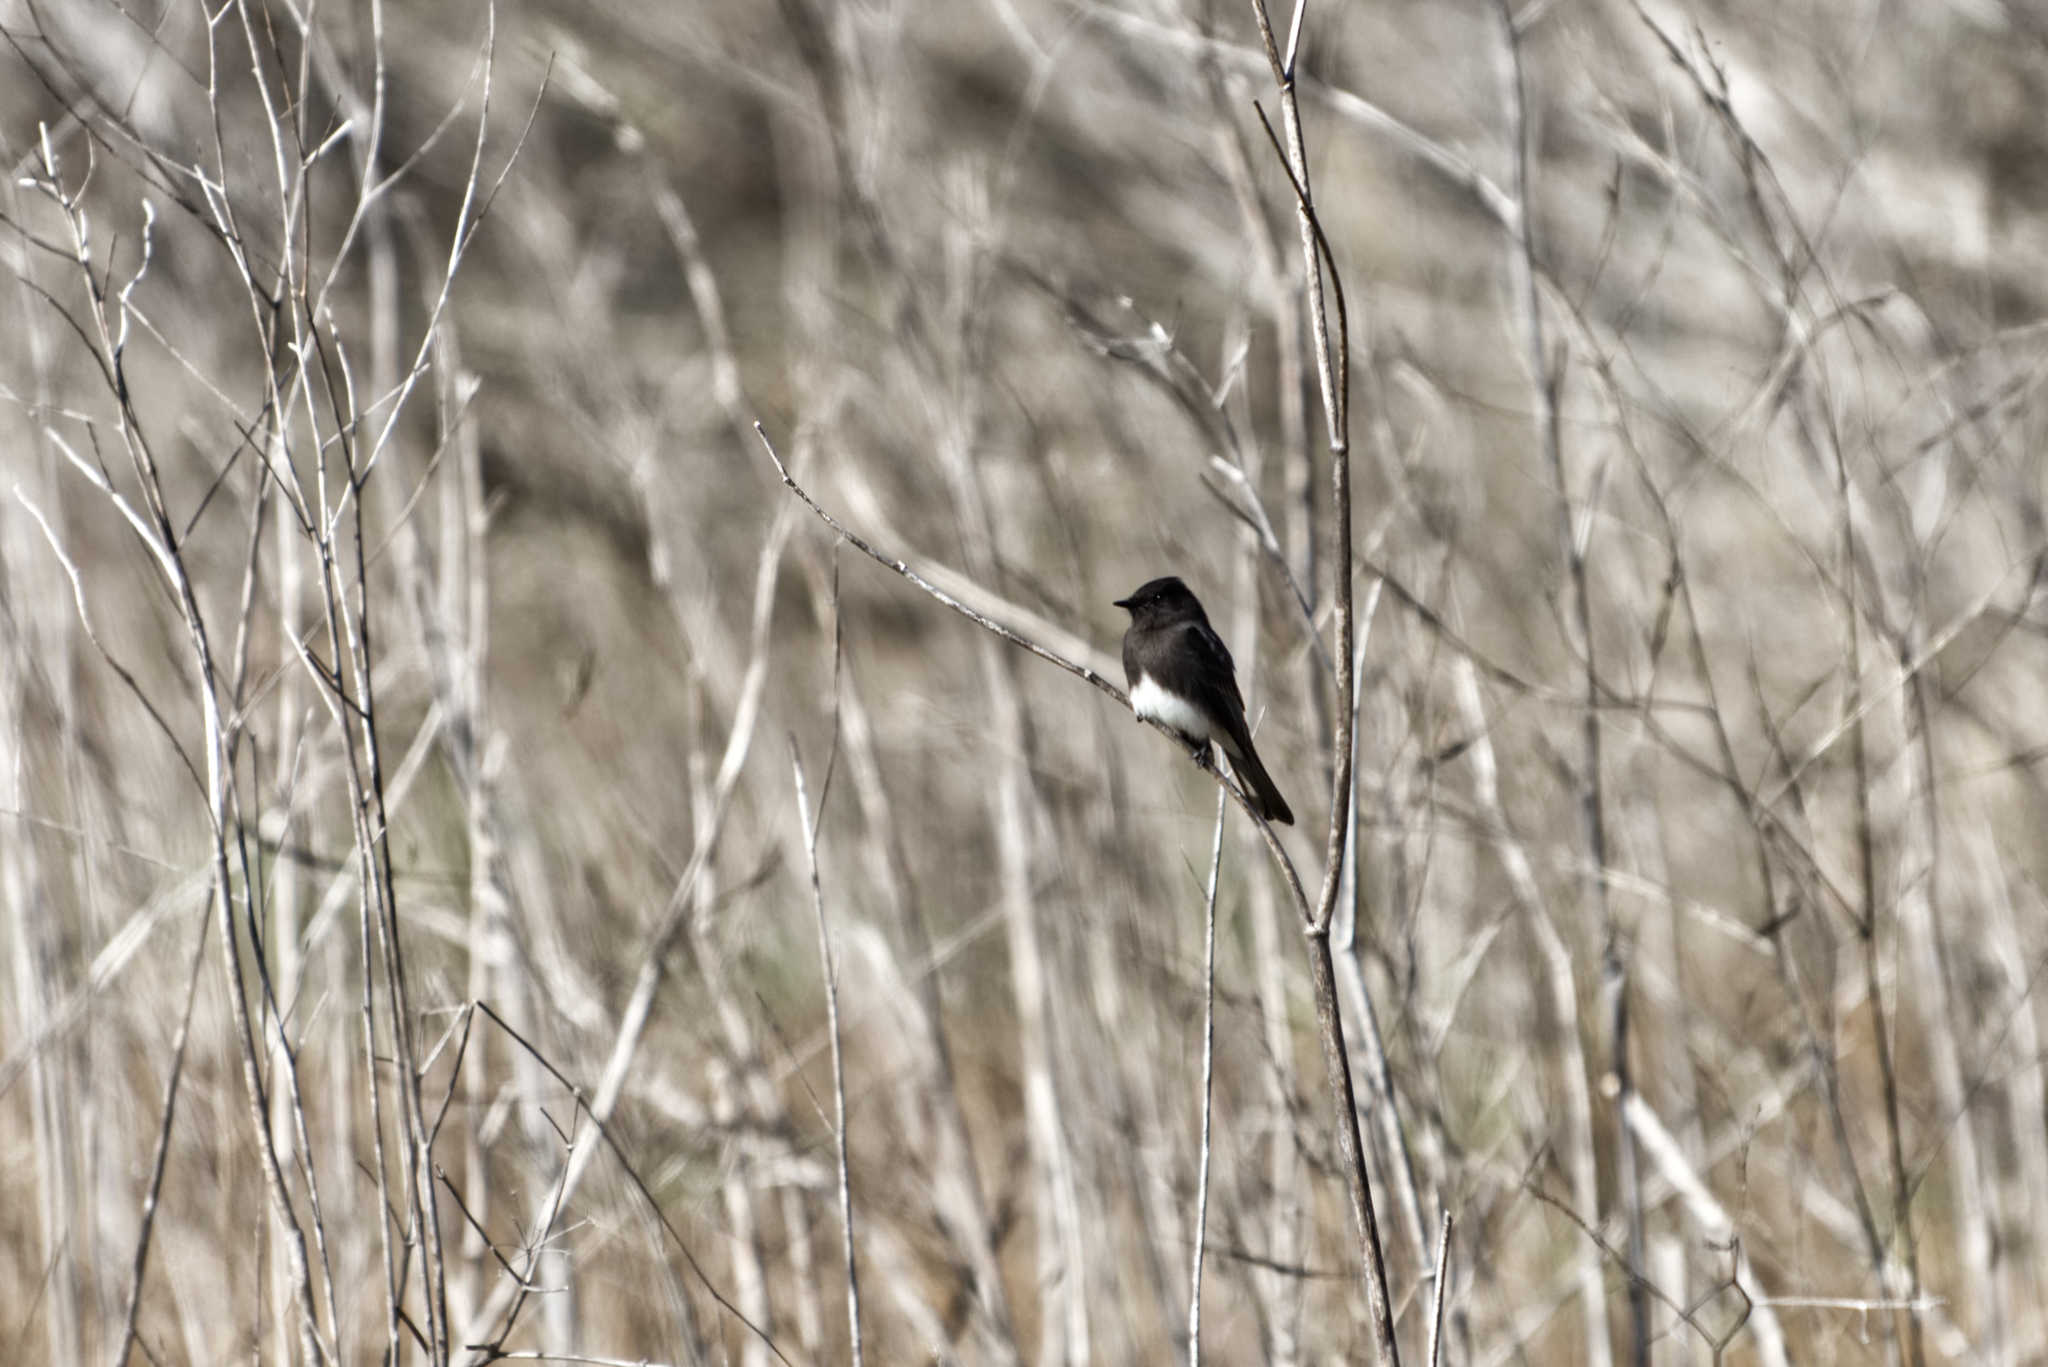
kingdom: Animalia
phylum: Chordata
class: Aves
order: Passeriformes
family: Tyrannidae
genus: Sayornis
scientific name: Sayornis nigricans
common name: Black phoebe
